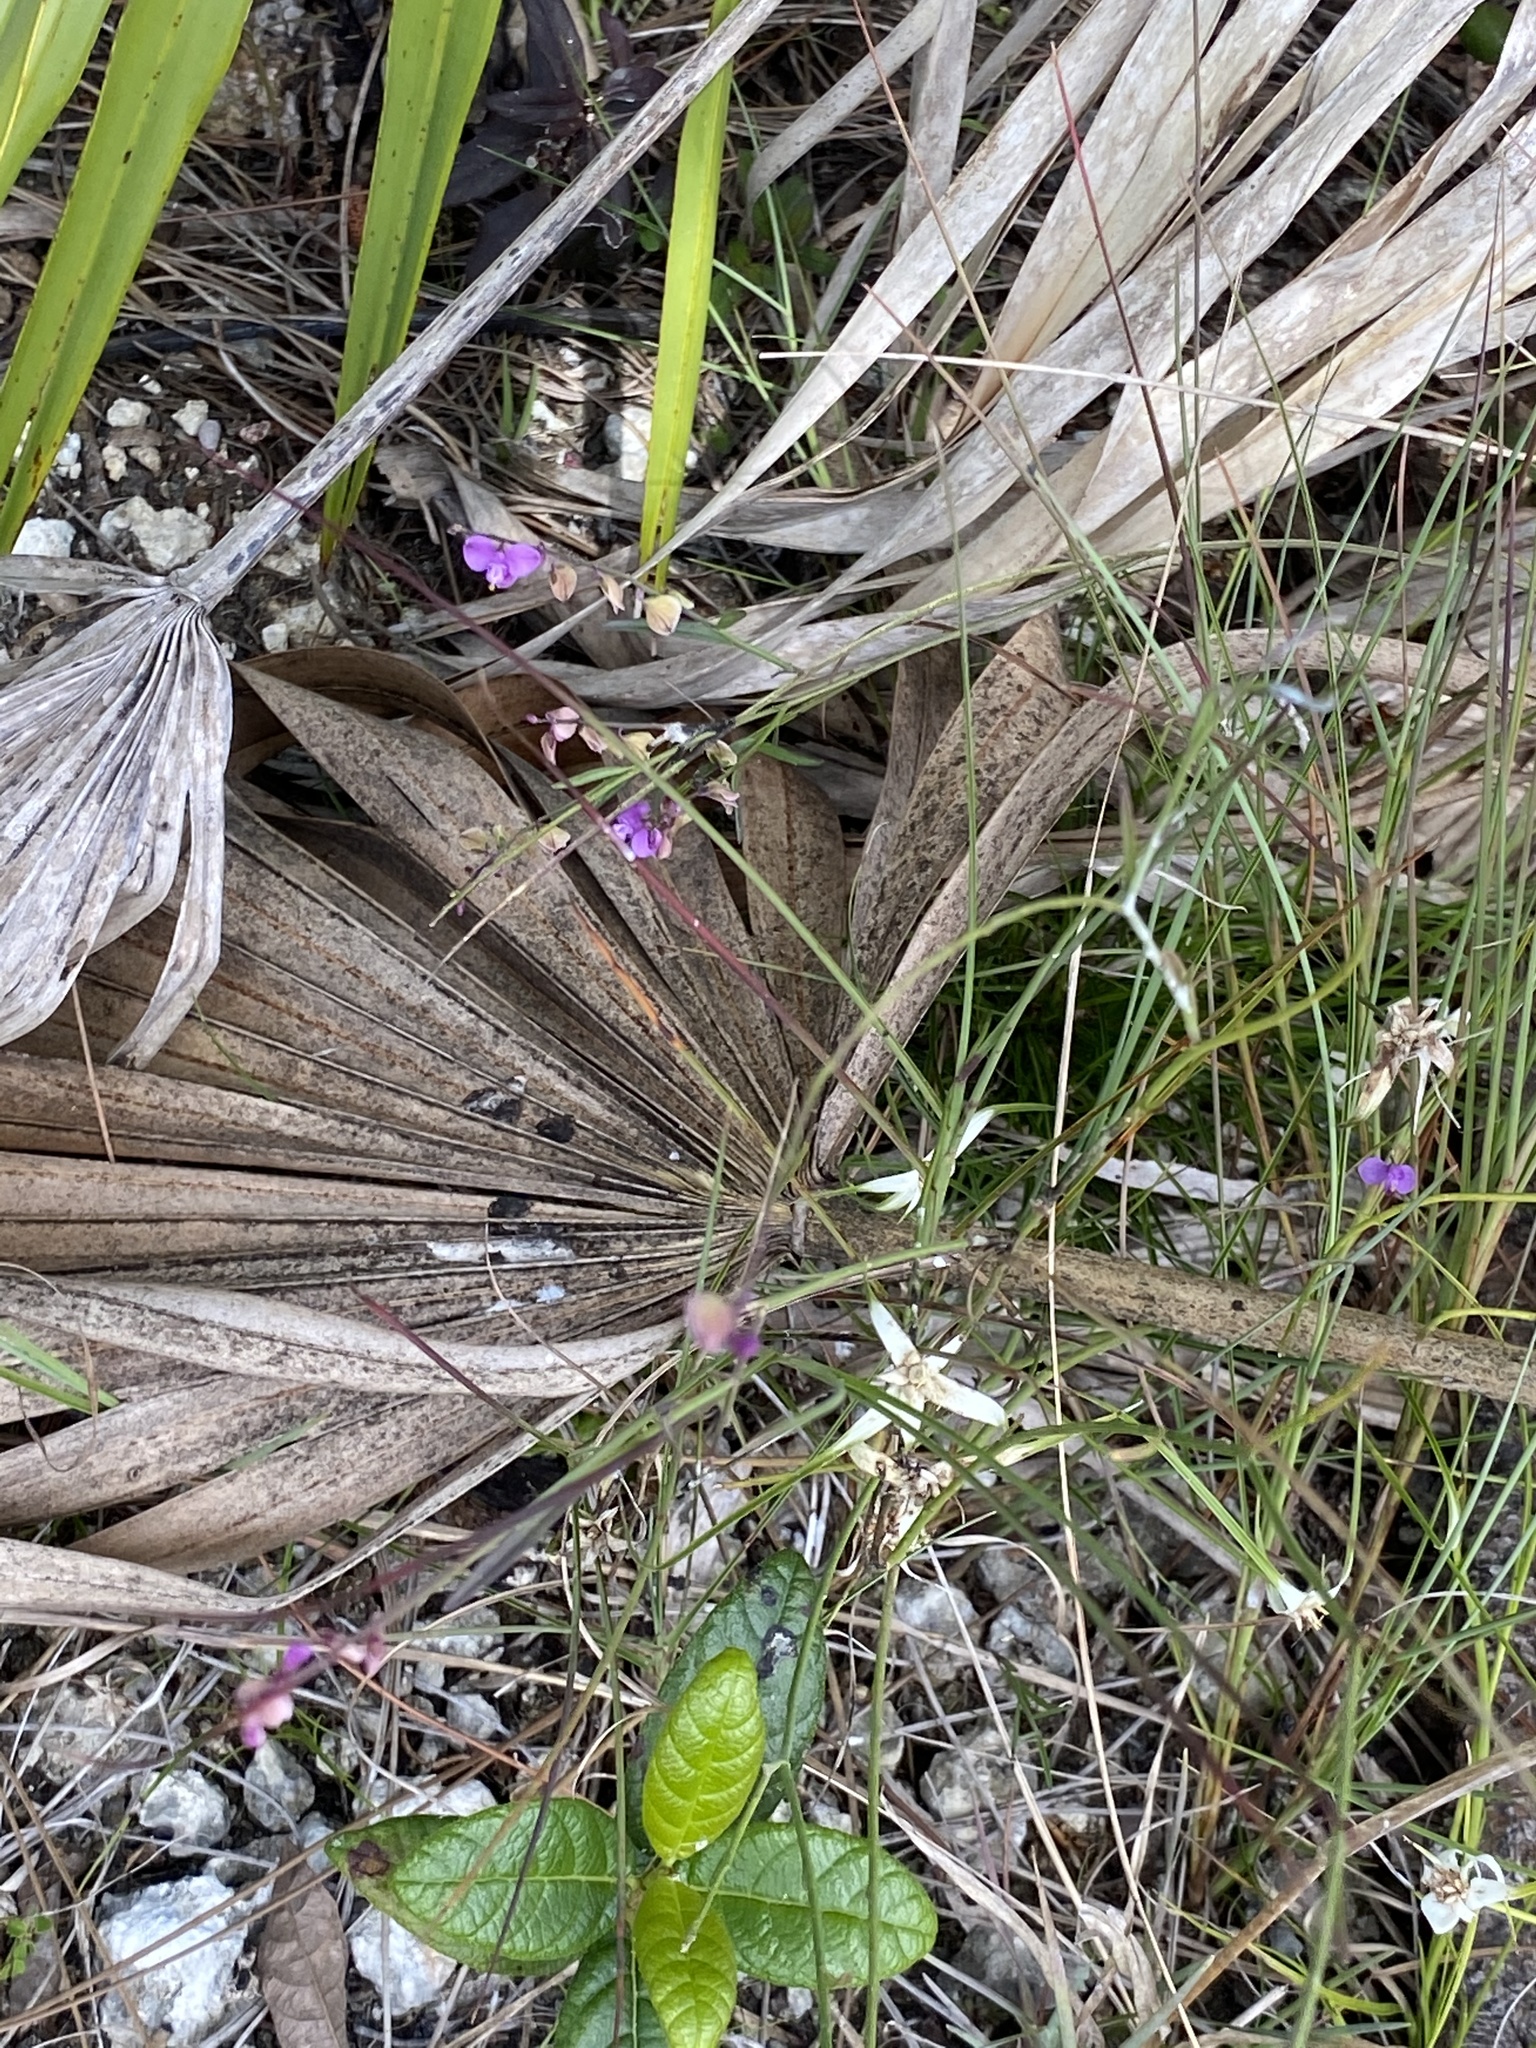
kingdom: Plantae
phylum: Tracheophyta
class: Magnoliopsida
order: Fabales
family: Polygalaceae
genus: Asemeia
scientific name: Asemeia grandiflora
